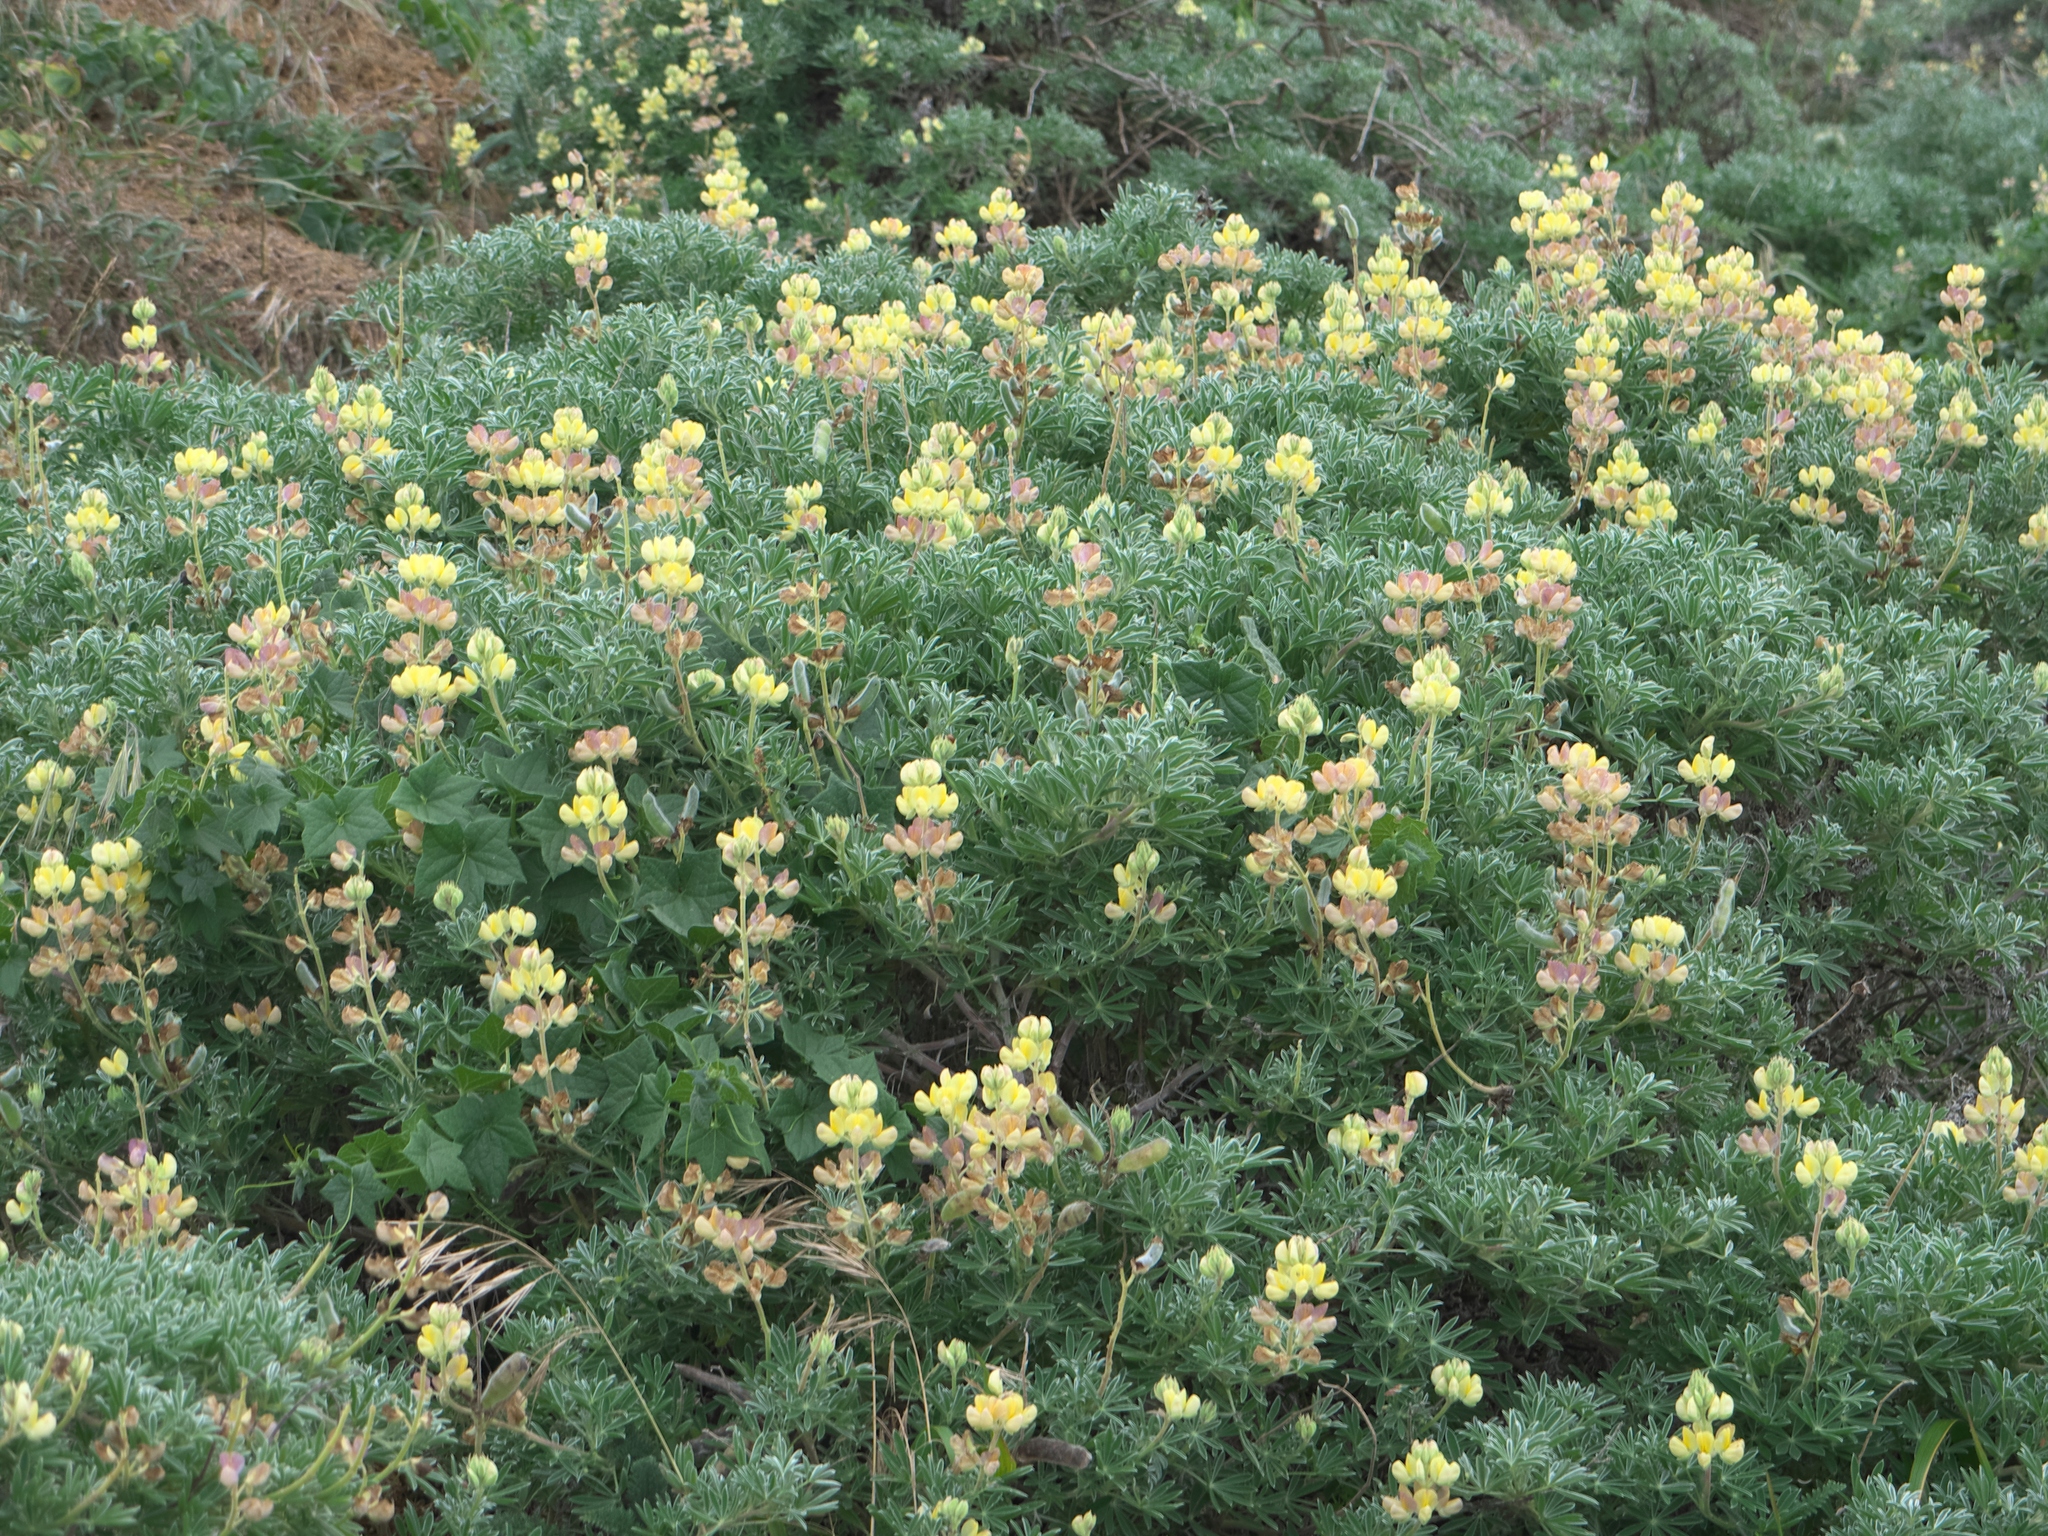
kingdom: Plantae
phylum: Tracheophyta
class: Magnoliopsida
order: Fabales
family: Fabaceae
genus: Lupinus
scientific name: Lupinus arboreus
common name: Yellow bush lupine
